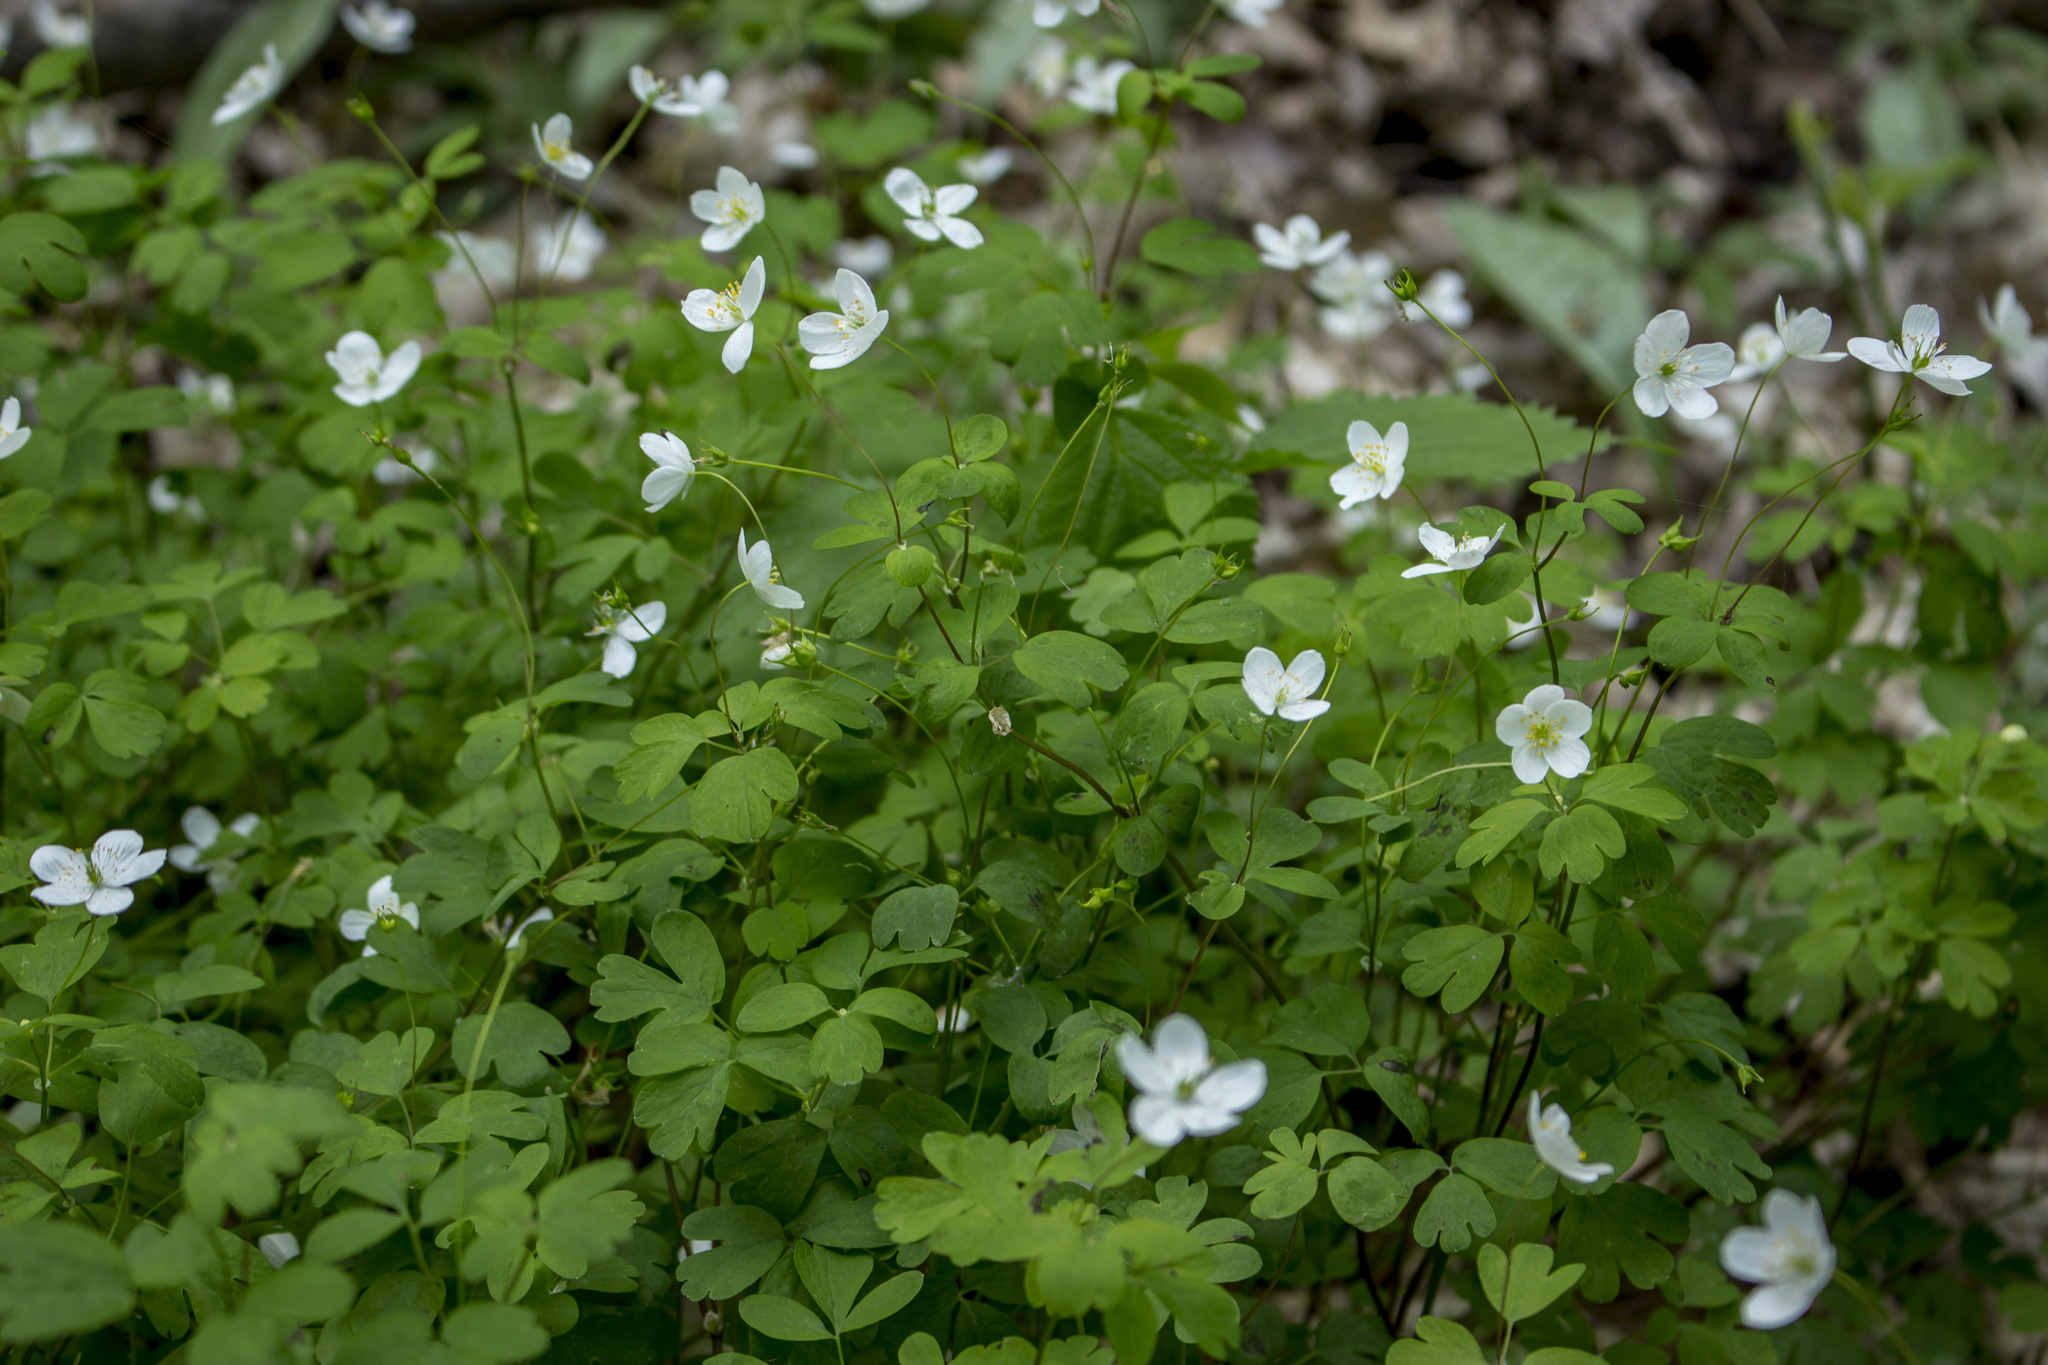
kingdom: Plantae
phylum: Tracheophyta
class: Magnoliopsida
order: Ranunculales
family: Ranunculaceae
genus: Enemion
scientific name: Enemion biternatum
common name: Eastern false rue-anemone
